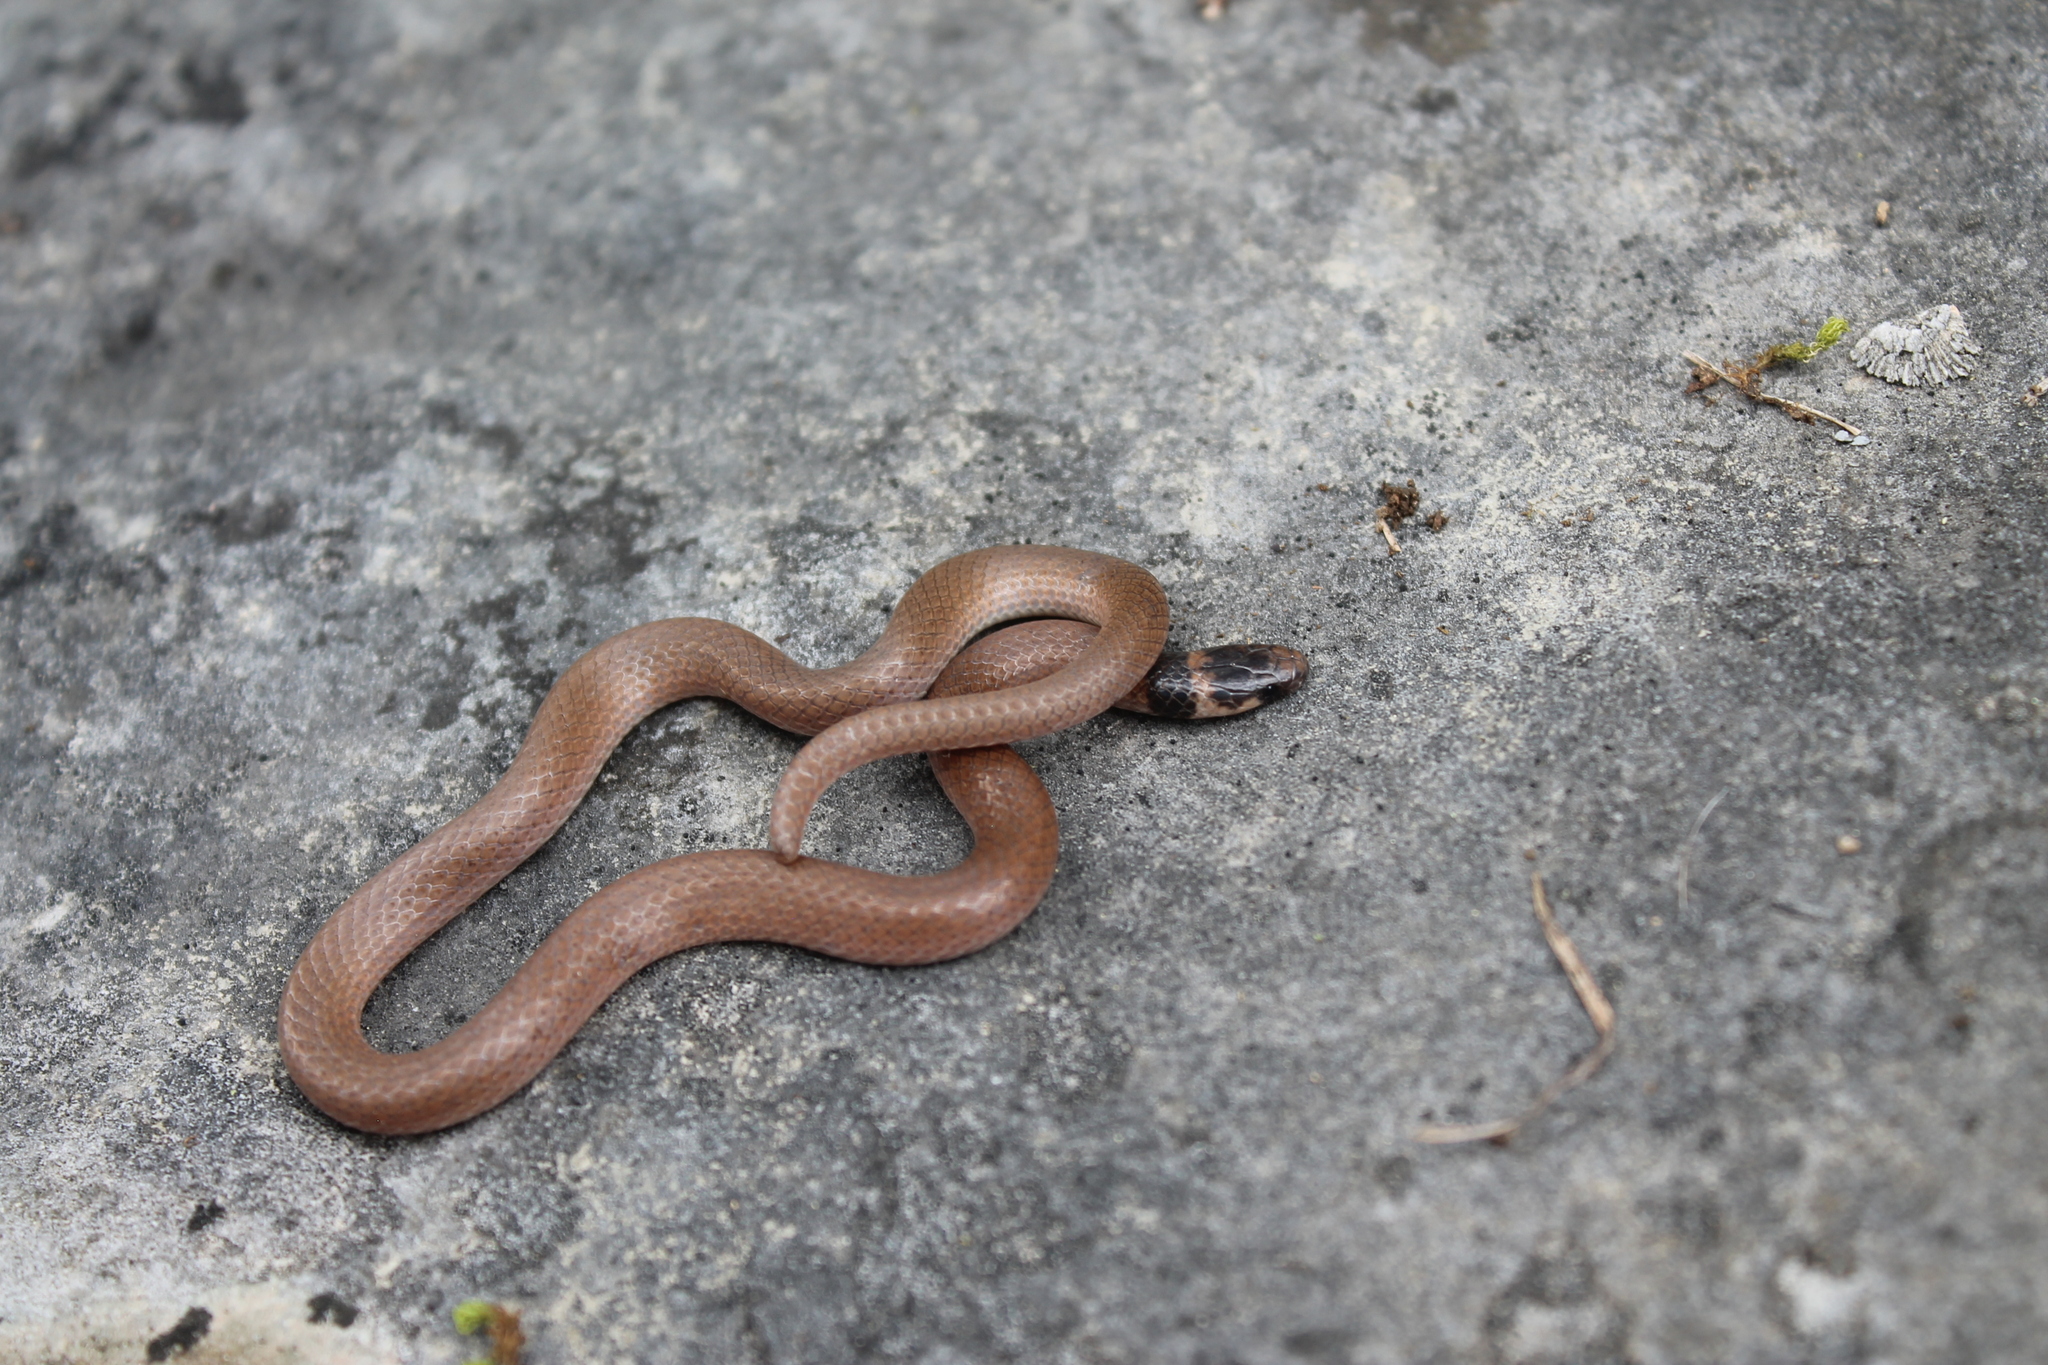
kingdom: Animalia
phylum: Chordata
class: Squamata
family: Colubridae
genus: Tantilla
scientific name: Tantilla coronata
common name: Southeastern crowned snake
